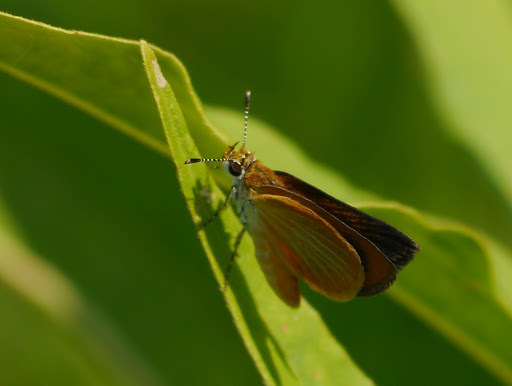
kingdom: Animalia
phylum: Arthropoda
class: Insecta
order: Lepidoptera
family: Hesperiidae
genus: Ancyloxypha
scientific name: Ancyloxypha numitor
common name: Least skipper
